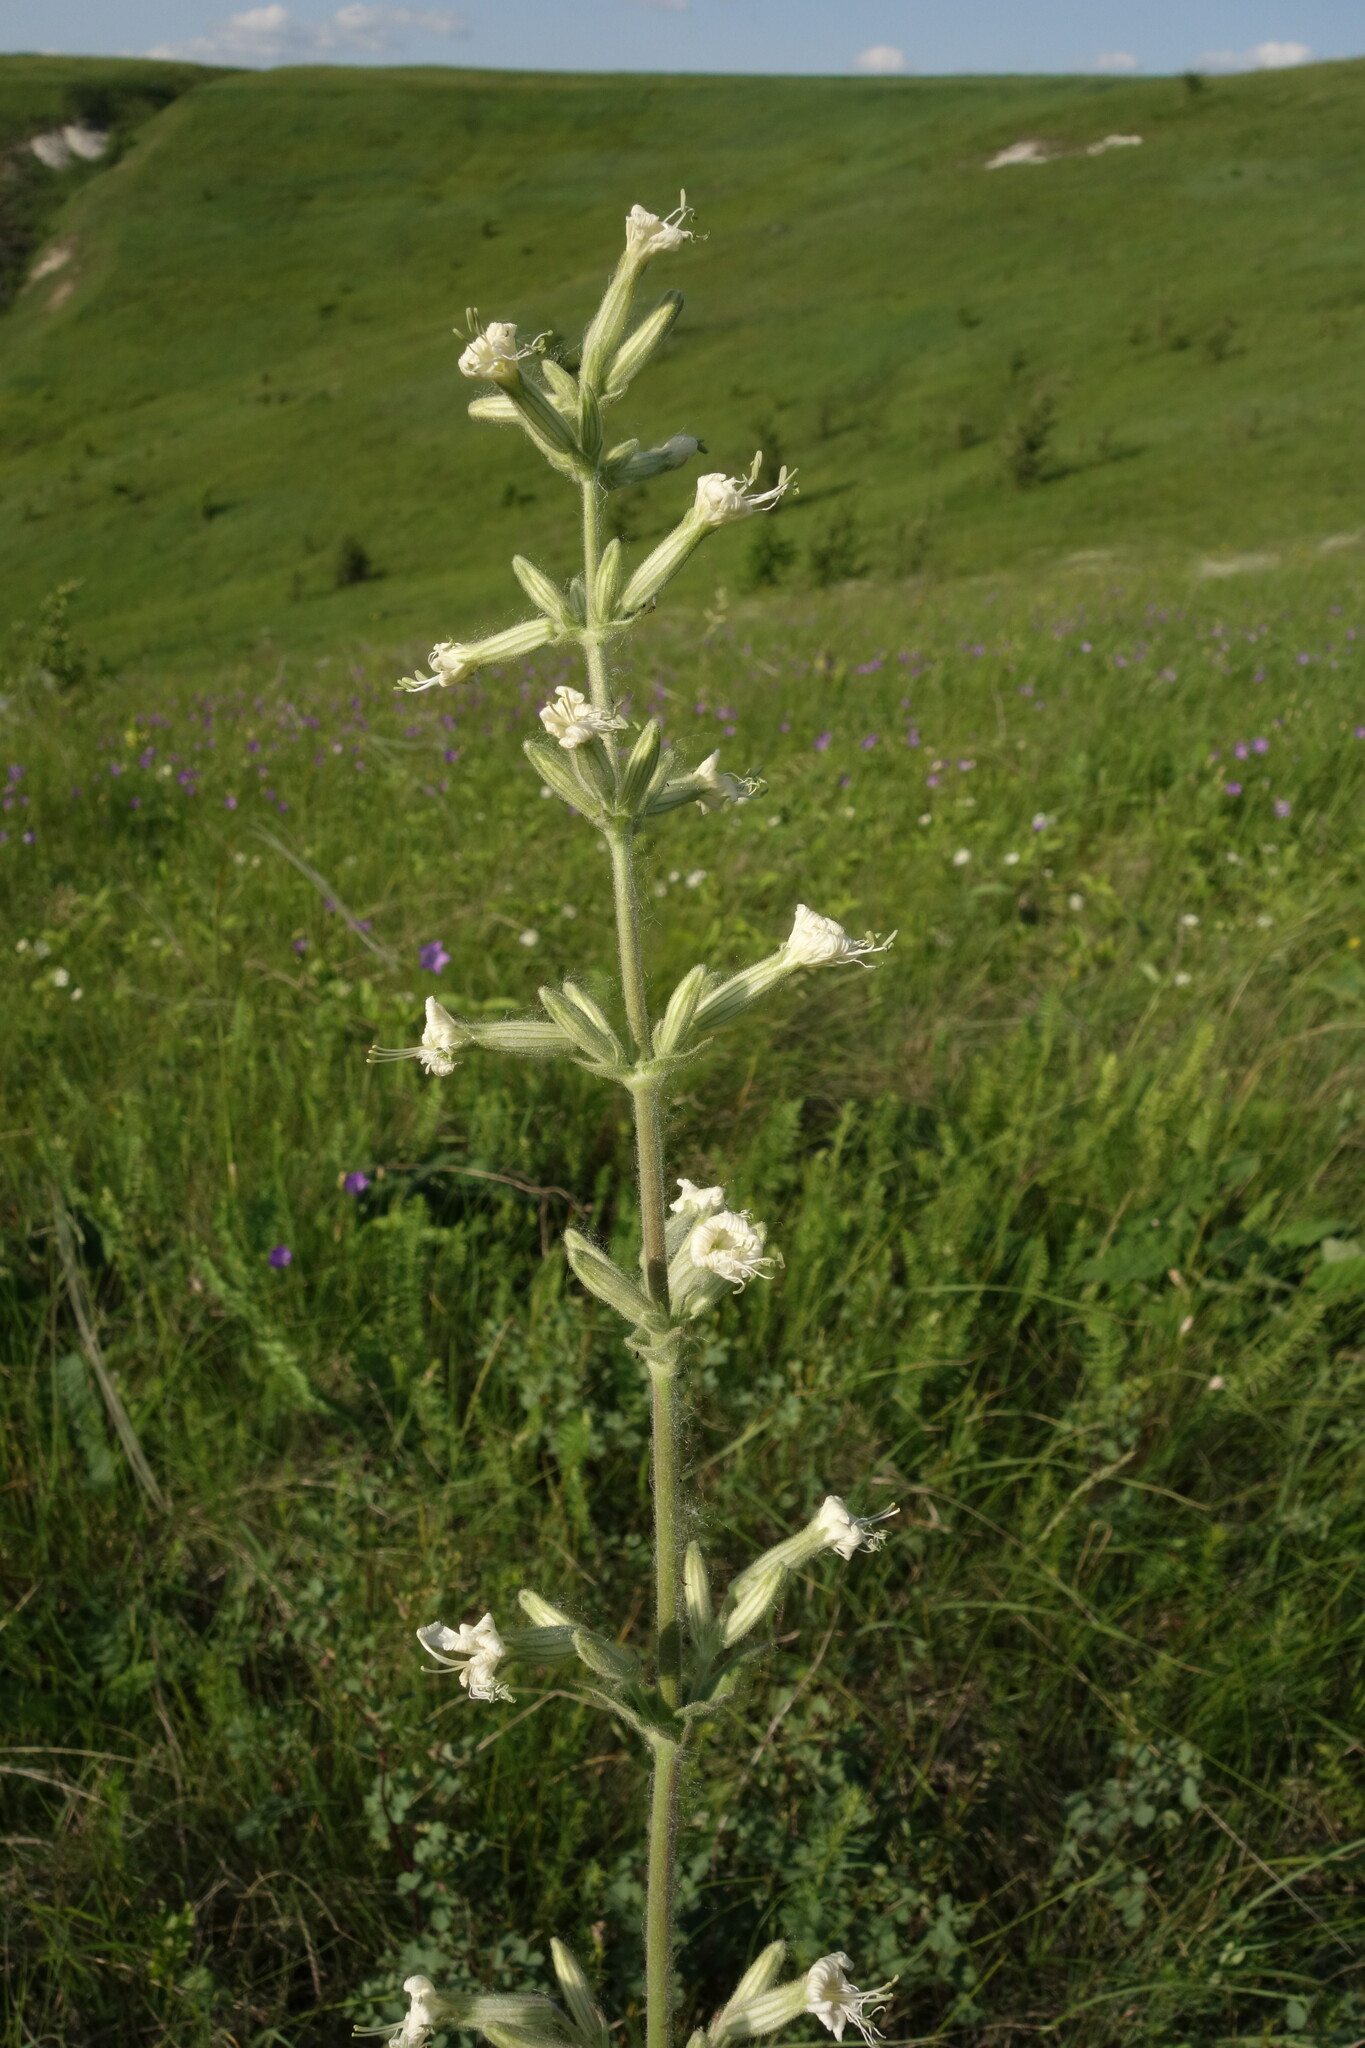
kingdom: Plantae
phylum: Tracheophyta
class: Magnoliopsida
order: Caryophyllales
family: Caryophyllaceae
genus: Silene
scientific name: Silene viscosa
